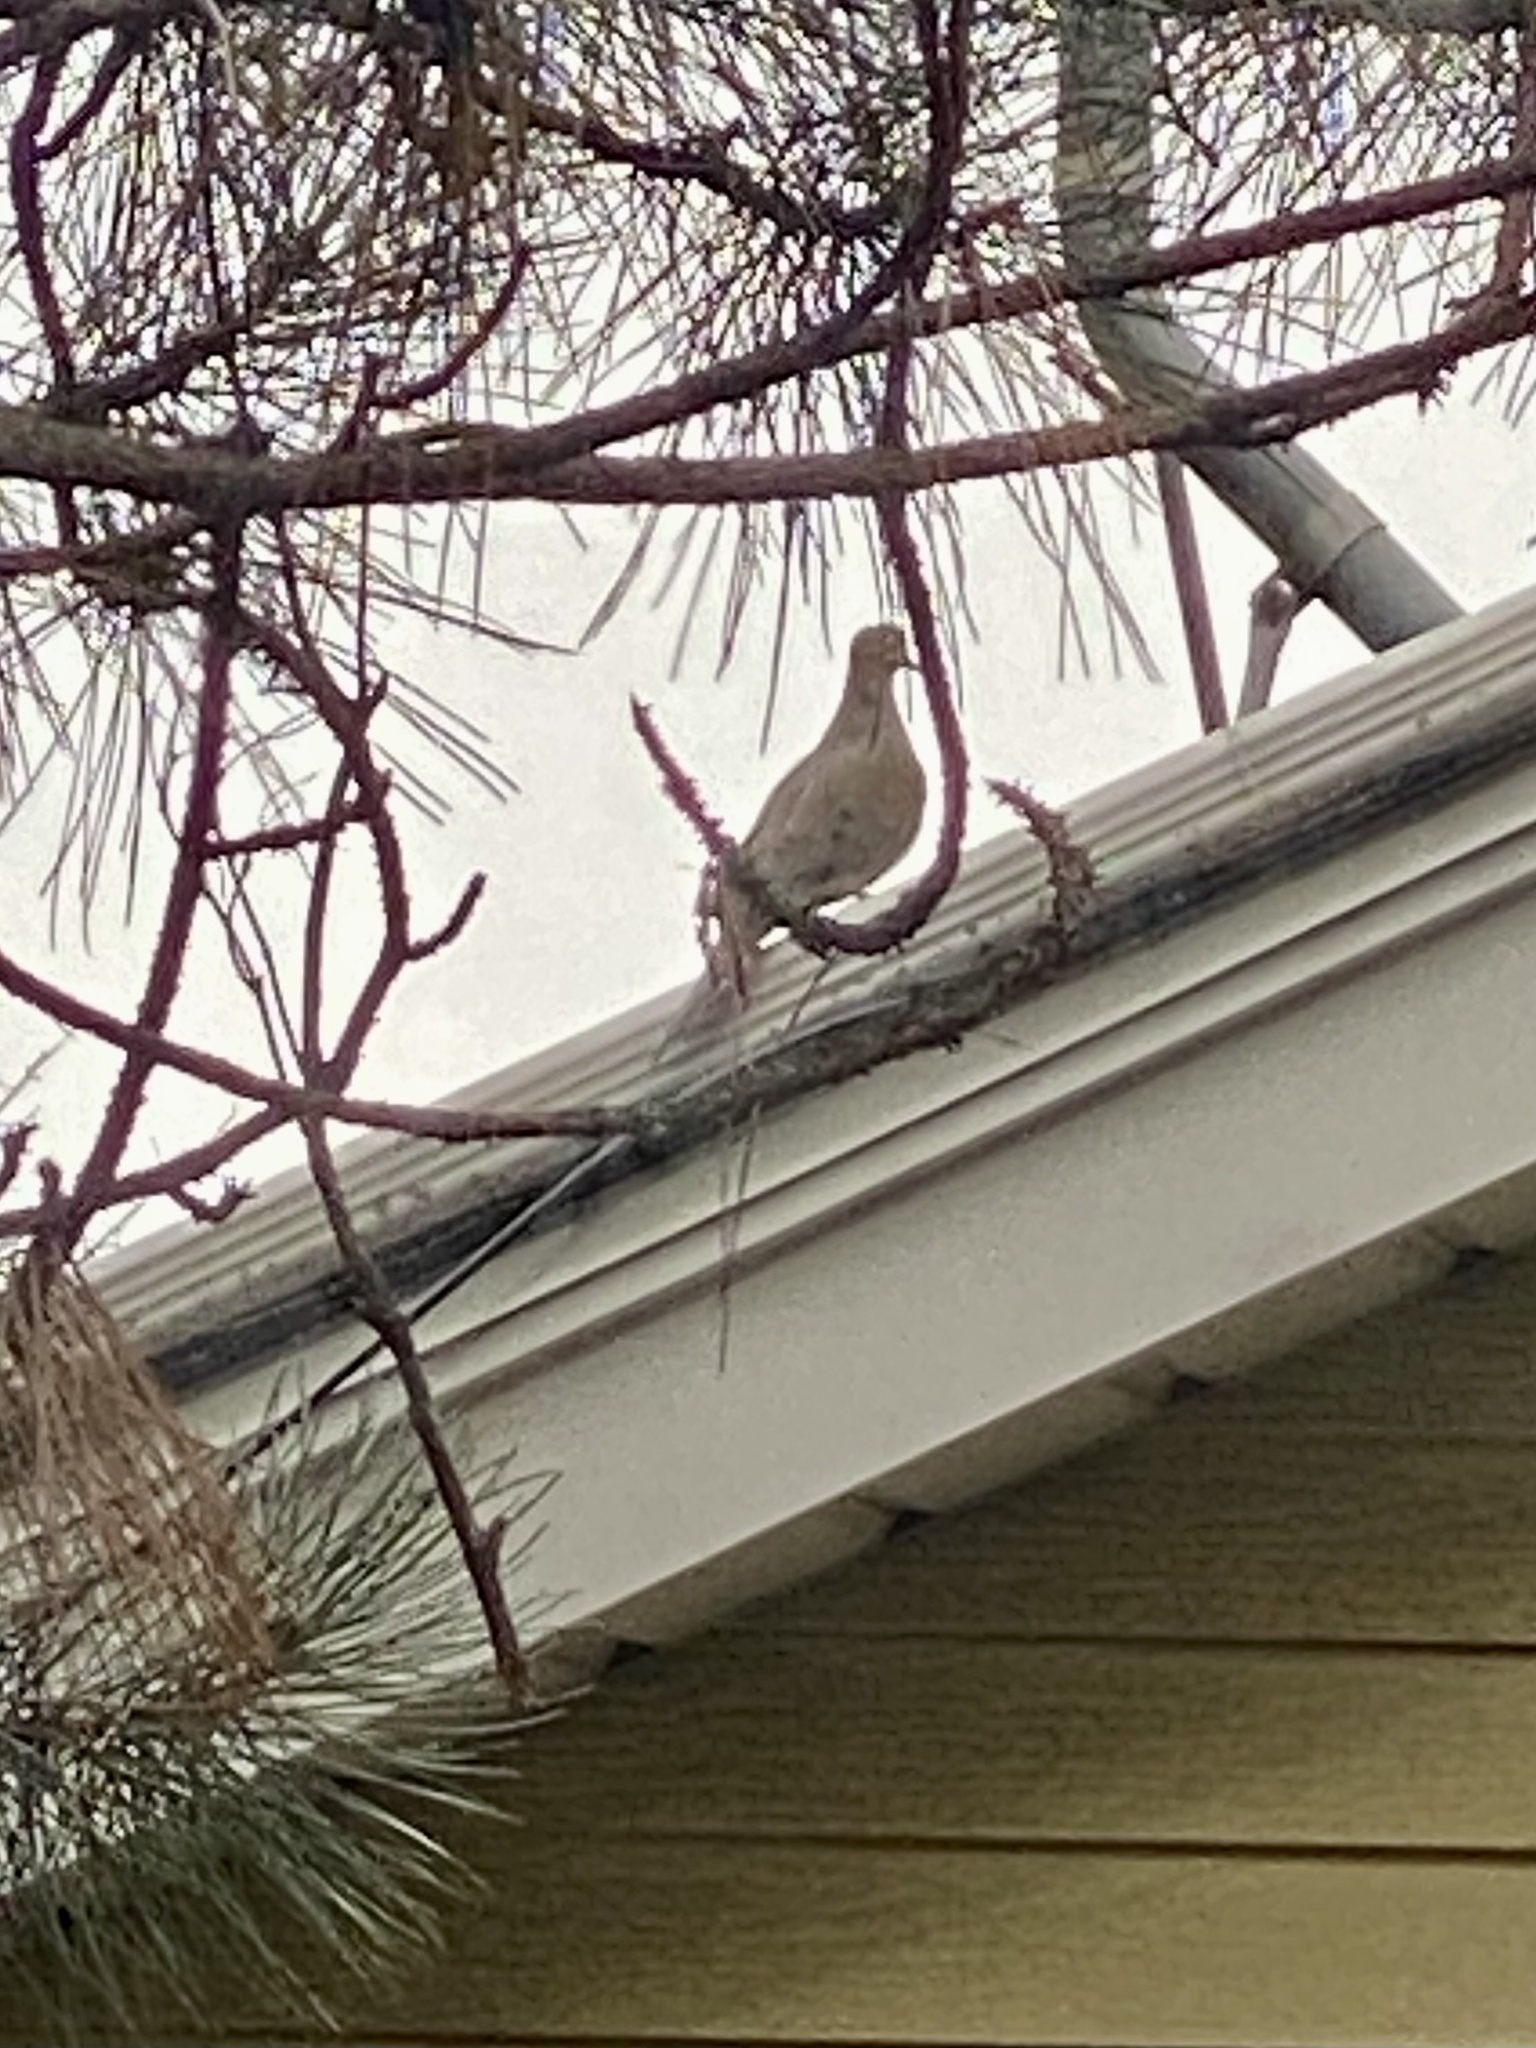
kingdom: Animalia
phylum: Chordata
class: Aves
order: Columbiformes
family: Columbidae
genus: Zenaida
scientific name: Zenaida macroura
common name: Mourning dove
